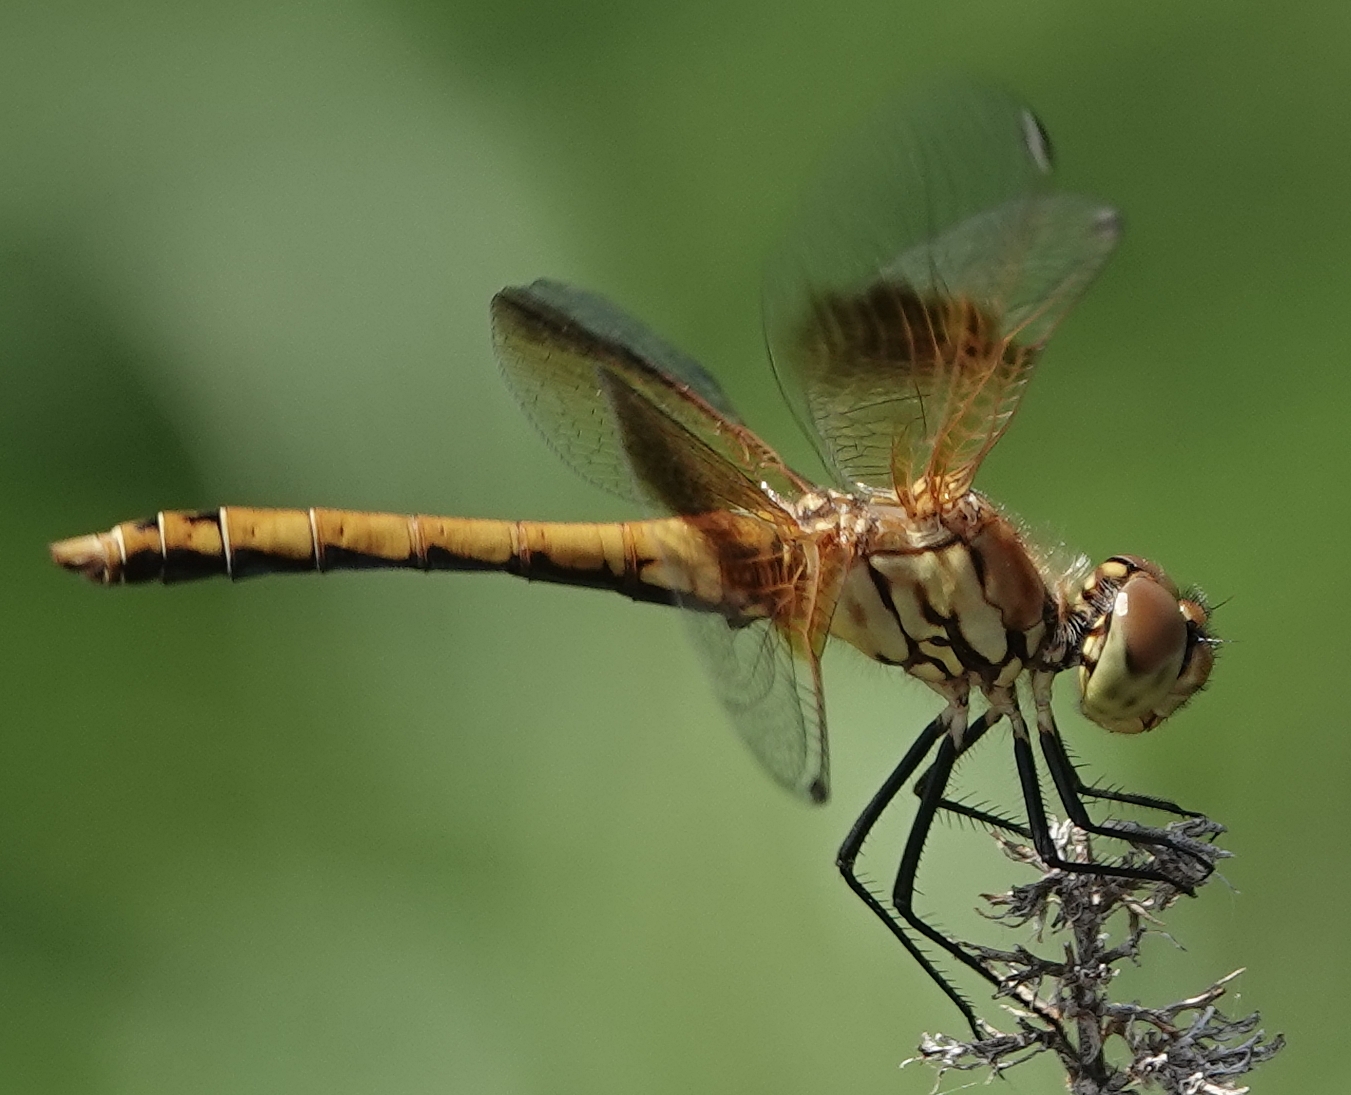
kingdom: Animalia
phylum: Arthropoda
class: Insecta
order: Odonata
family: Libellulidae
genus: Sympetrum
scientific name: Sympetrum semicinctum
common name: Band-winged meadowhawk
